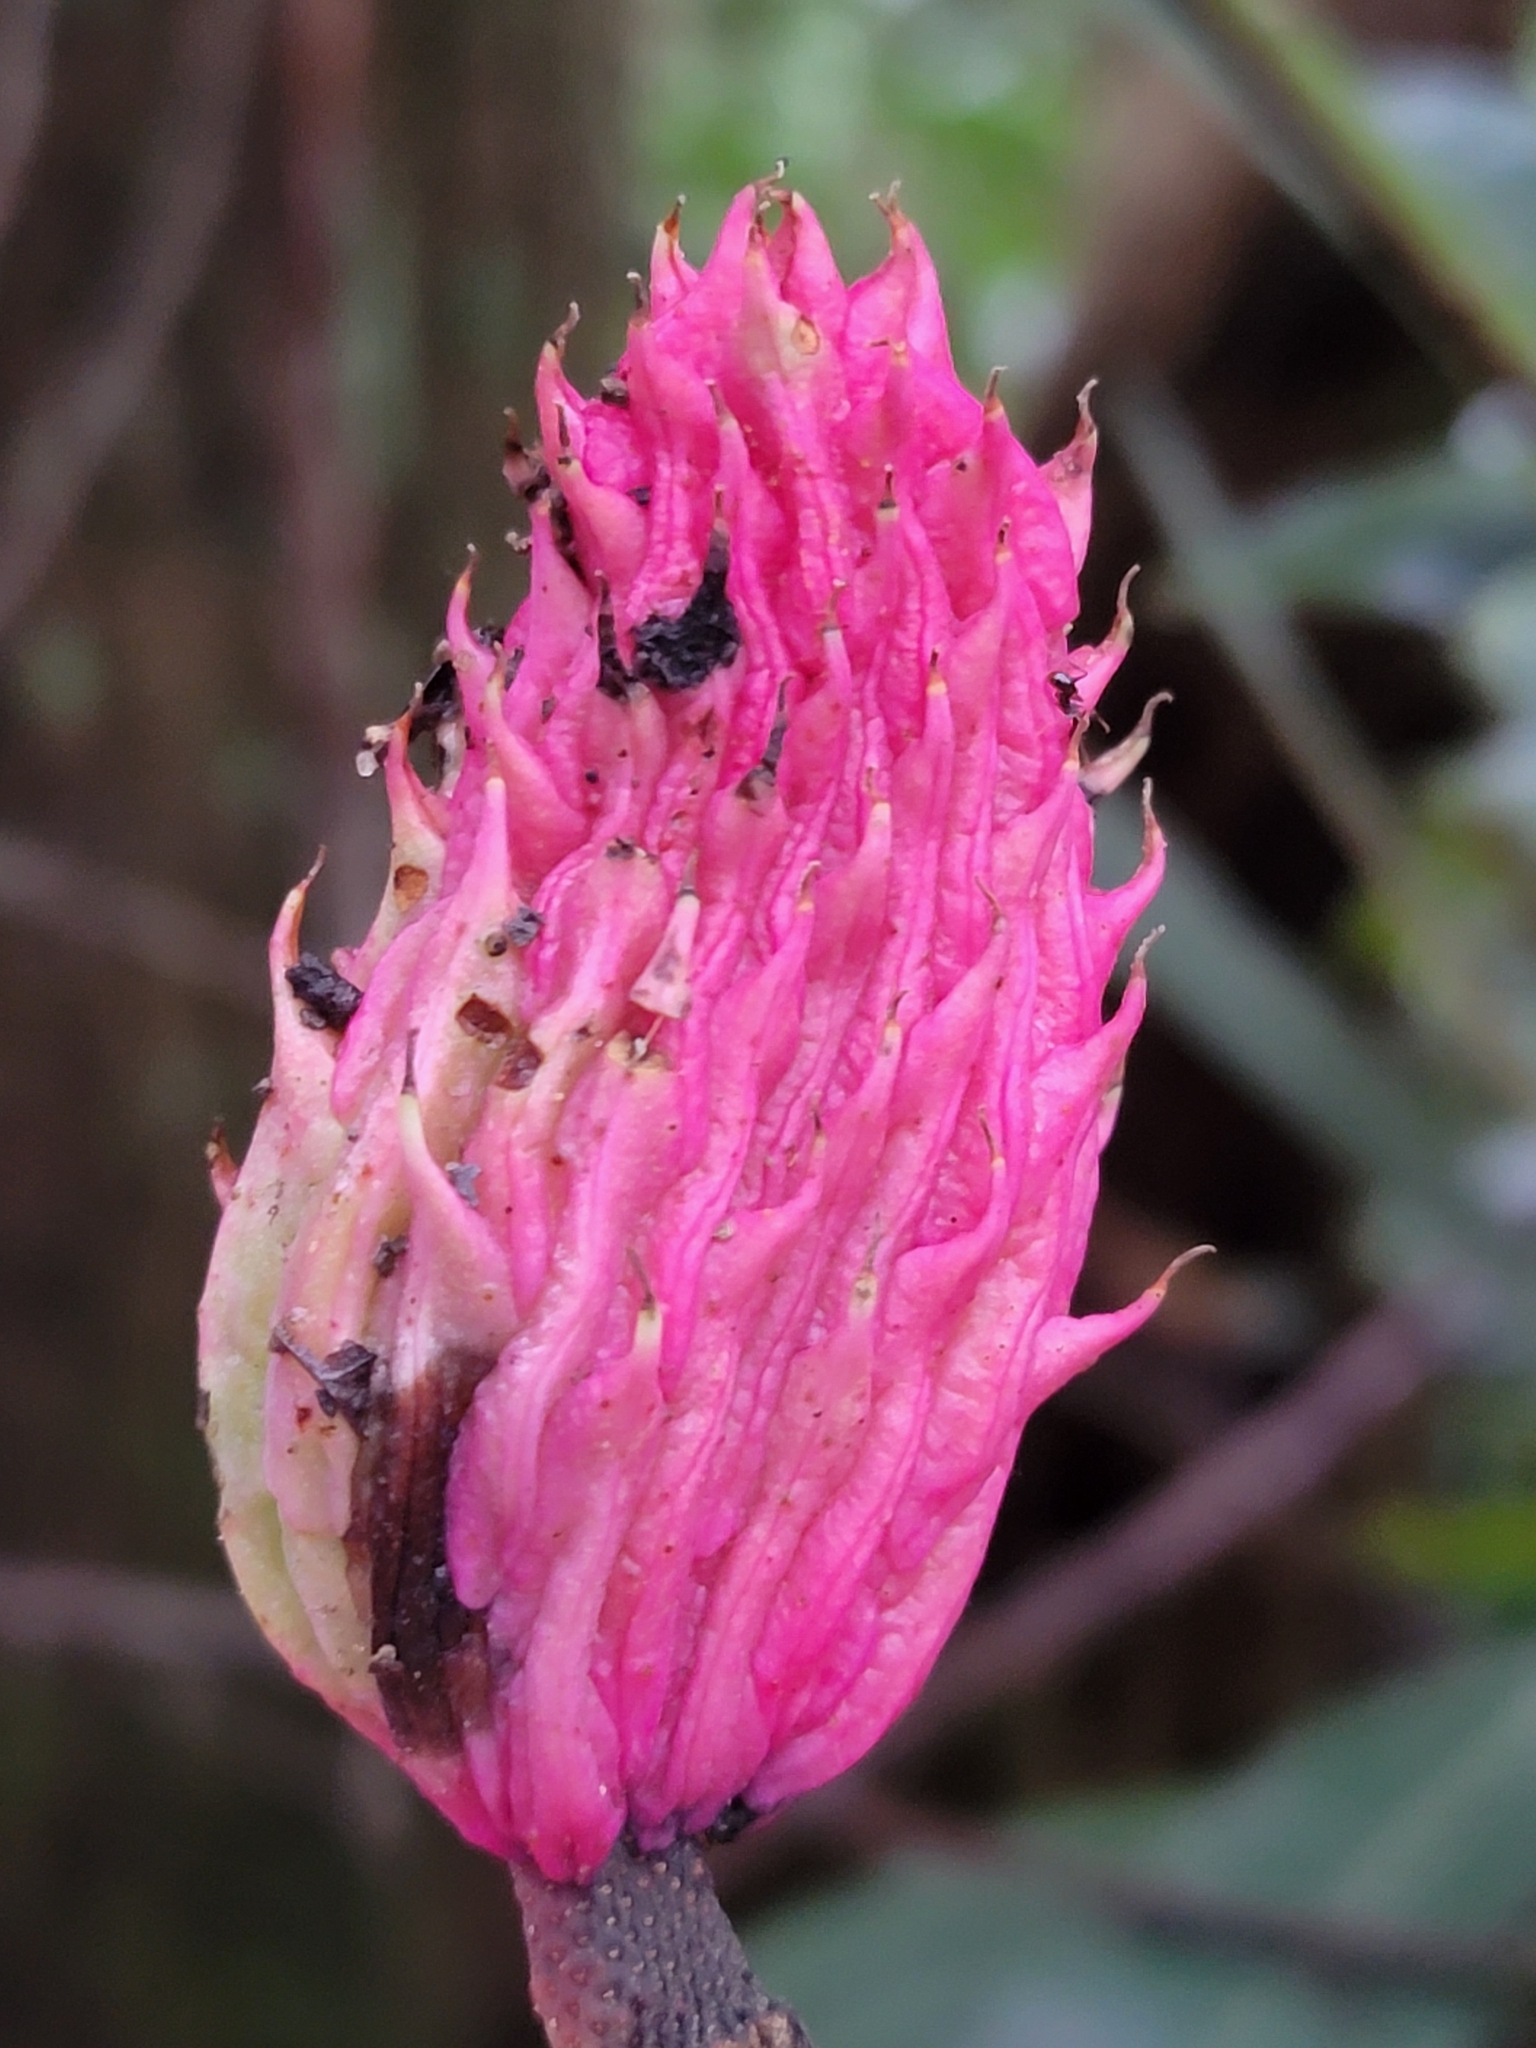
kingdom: Plantae
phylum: Tracheophyta
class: Magnoliopsida
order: Magnoliales
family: Magnoliaceae
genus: Magnolia
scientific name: Magnolia fraseri
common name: Fraser's magnolia
